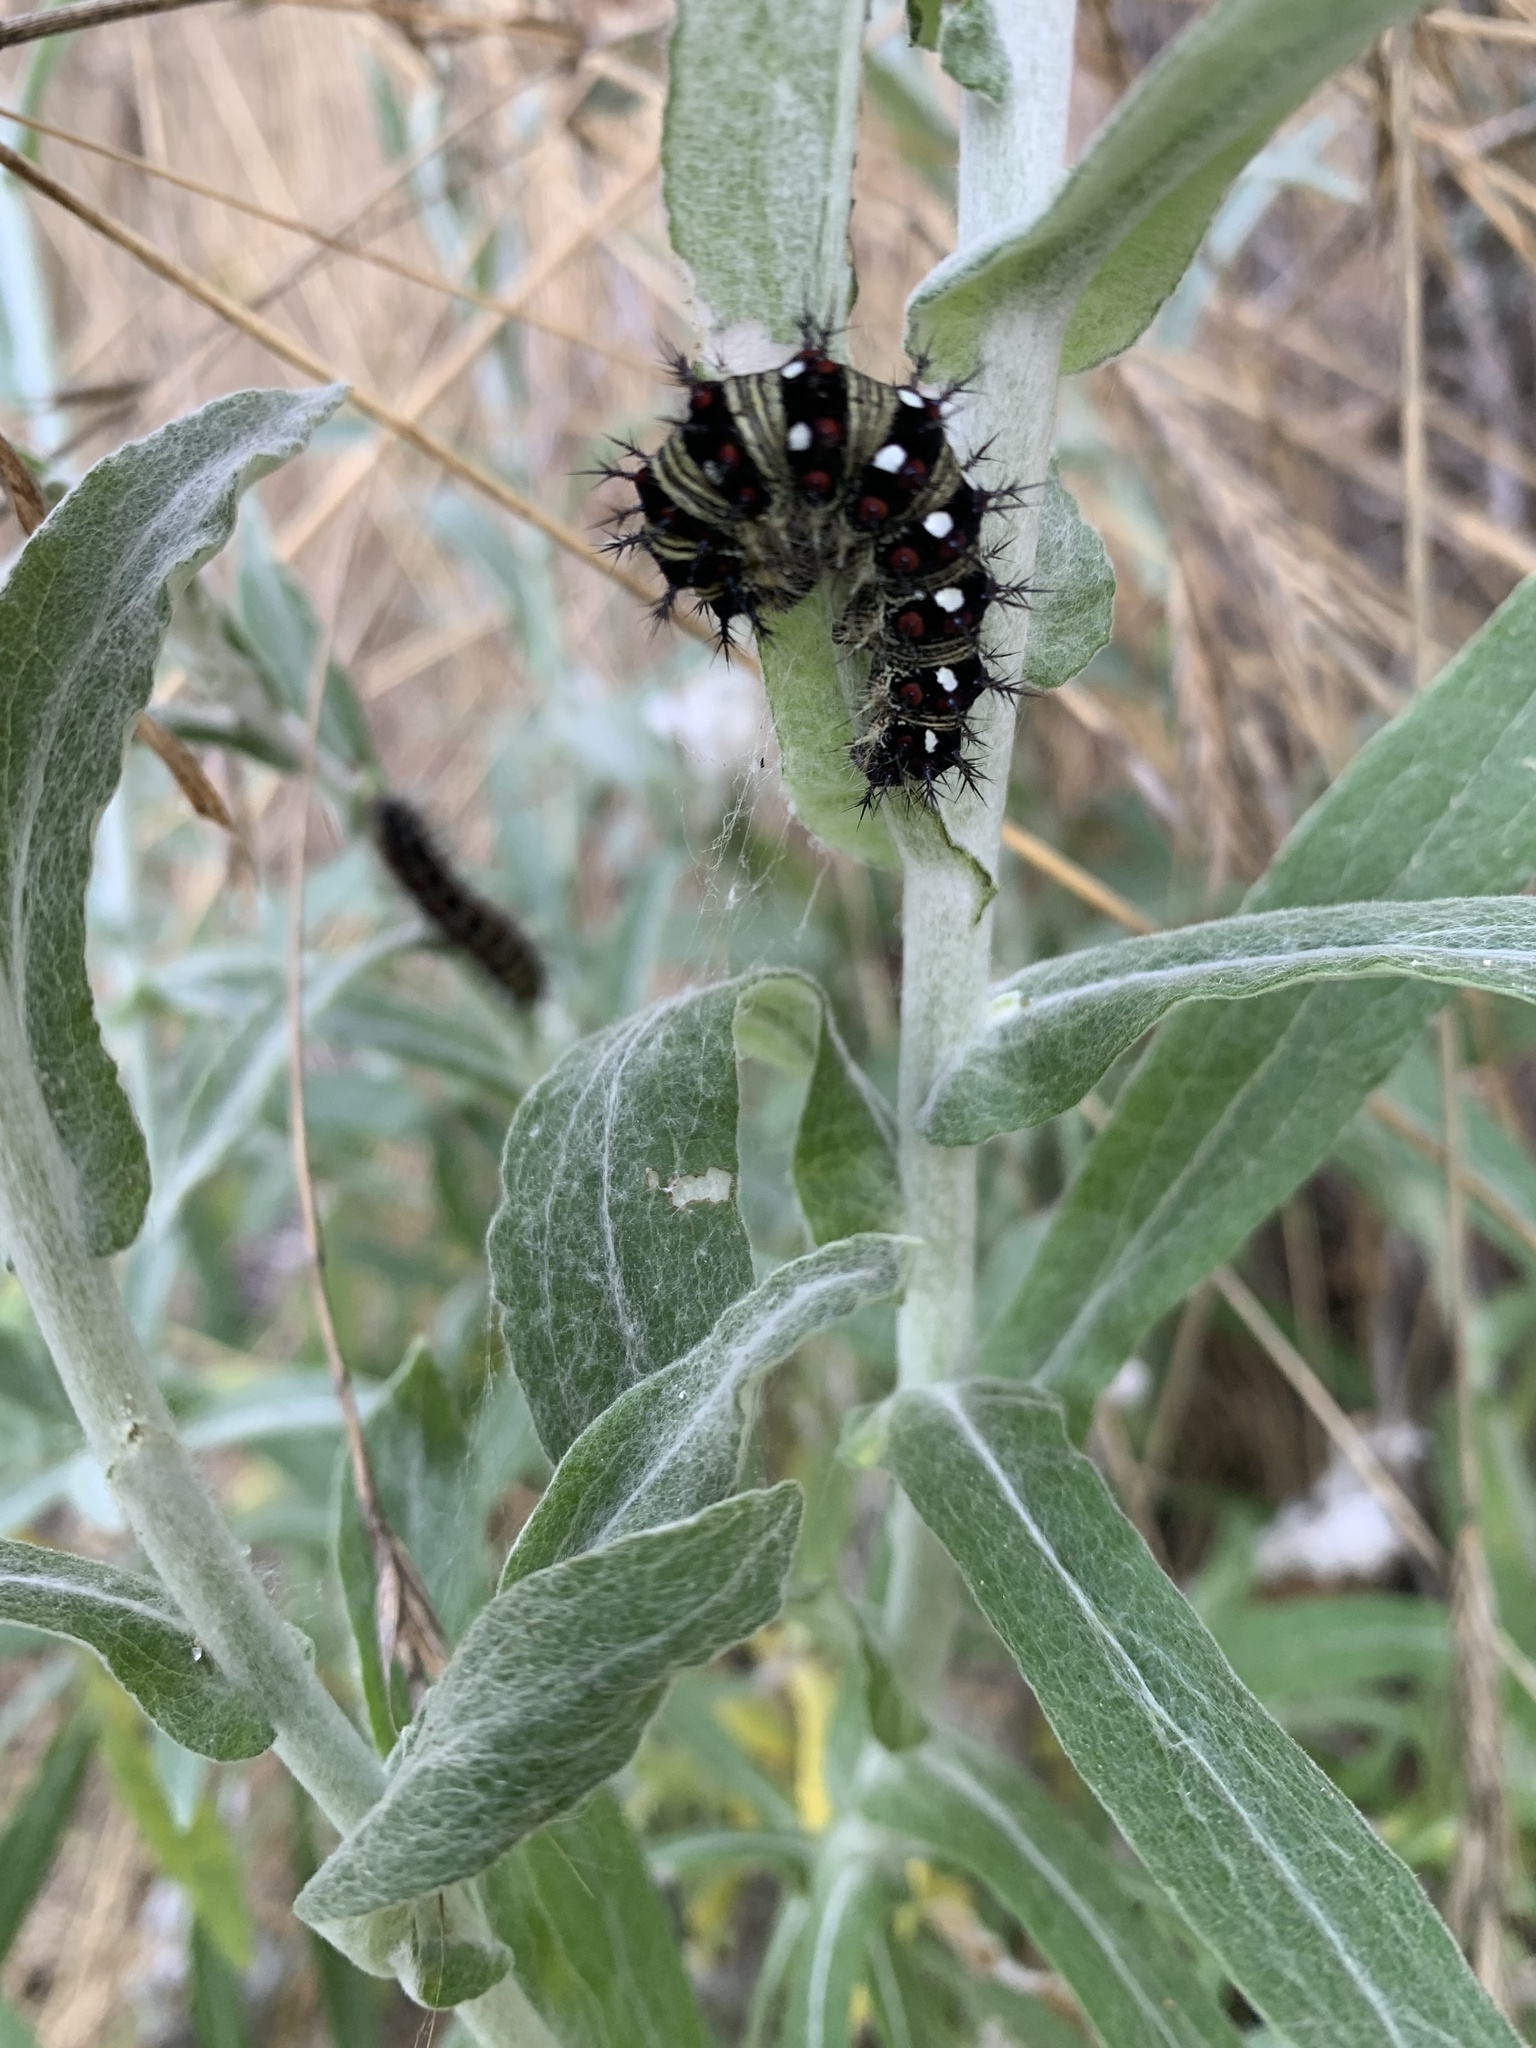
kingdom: Animalia
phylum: Arthropoda
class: Insecta
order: Lepidoptera
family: Nymphalidae
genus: Vanessa
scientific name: Vanessa virginiensis
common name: American lady
